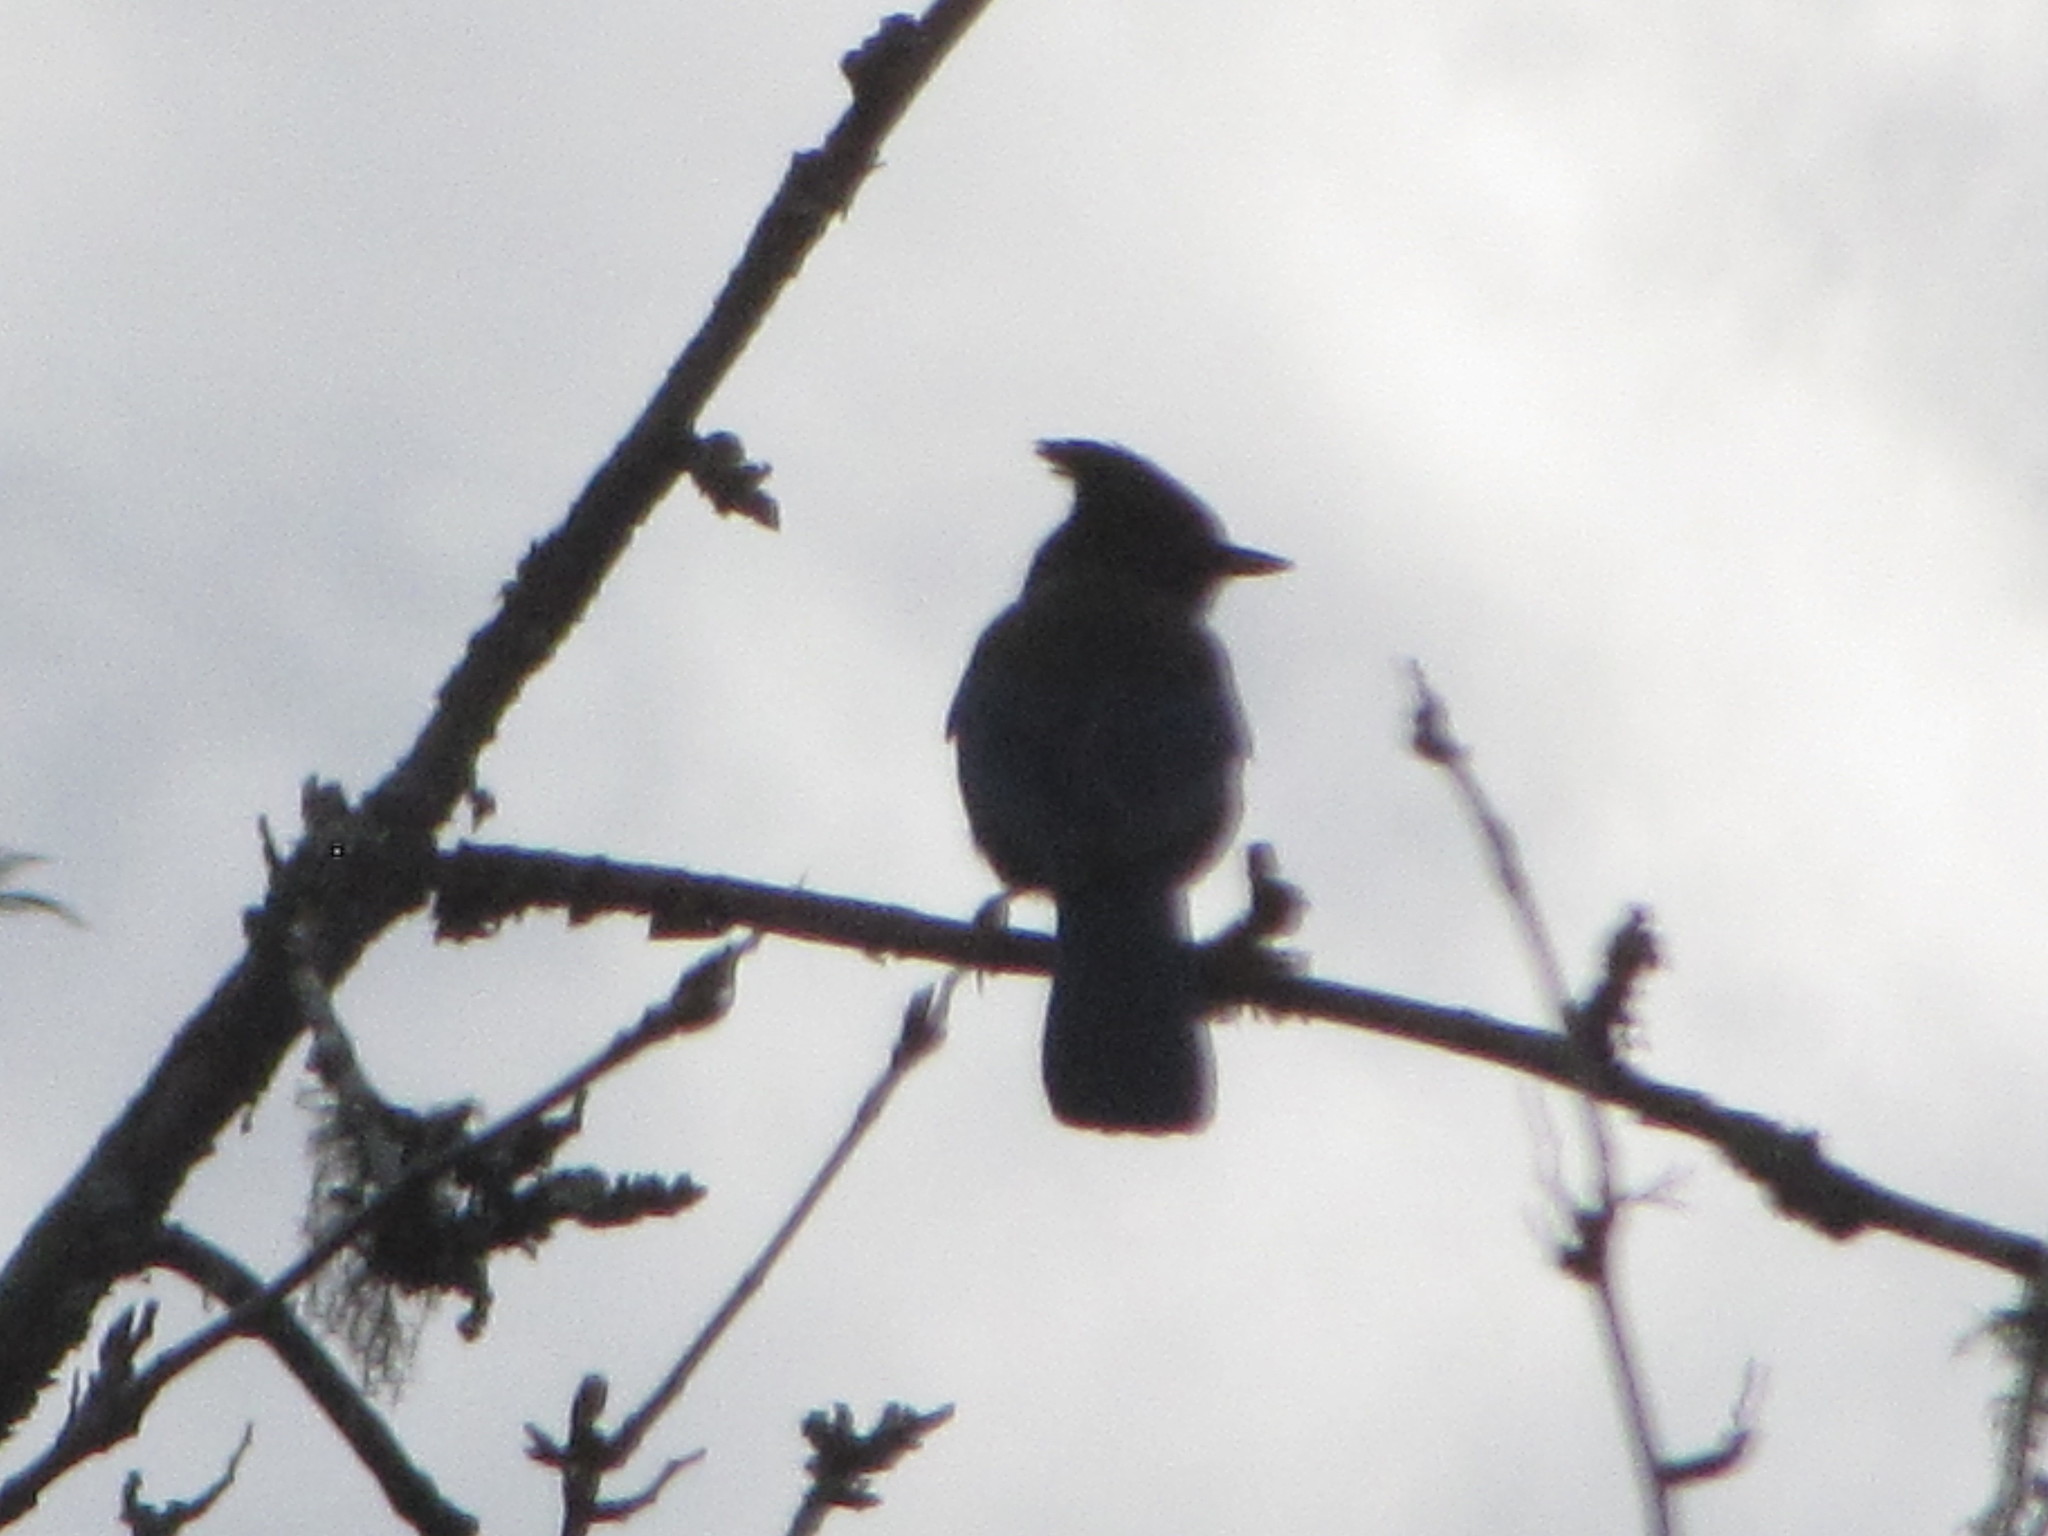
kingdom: Animalia
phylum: Chordata
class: Aves
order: Passeriformes
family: Corvidae
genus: Cyanocitta
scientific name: Cyanocitta stelleri
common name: Steller's jay
